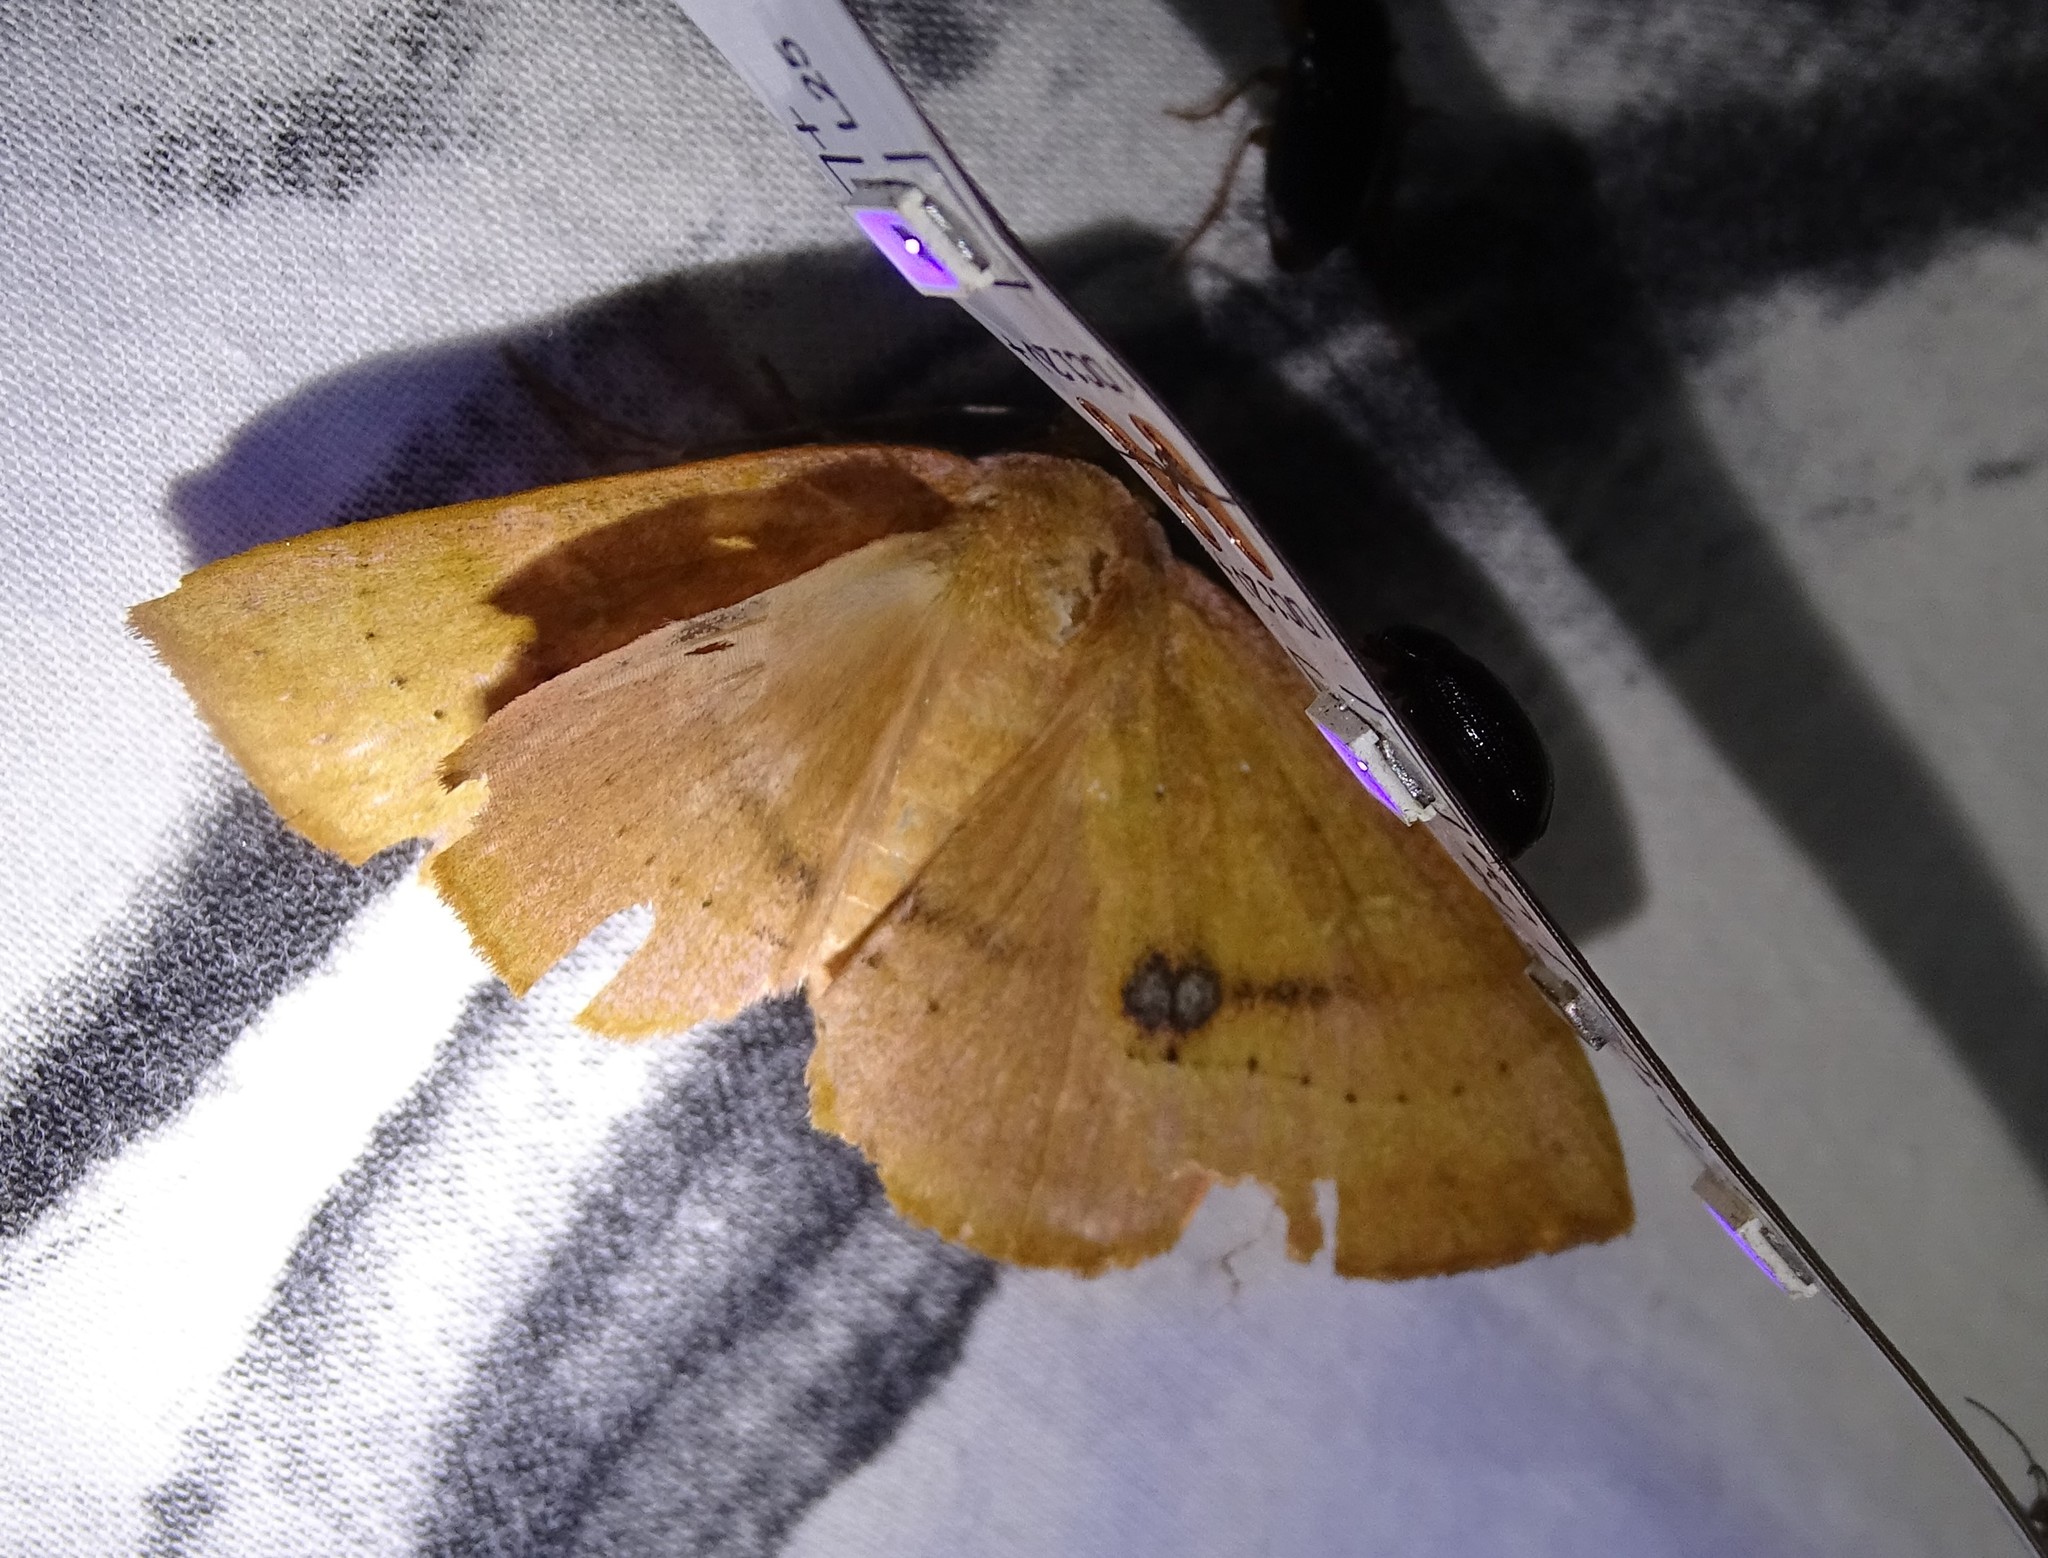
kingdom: Animalia
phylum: Arthropoda
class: Insecta
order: Lepidoptera
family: Erebidae
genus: Panopoda
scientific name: Panopoda repanda
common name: Orange panopoda
